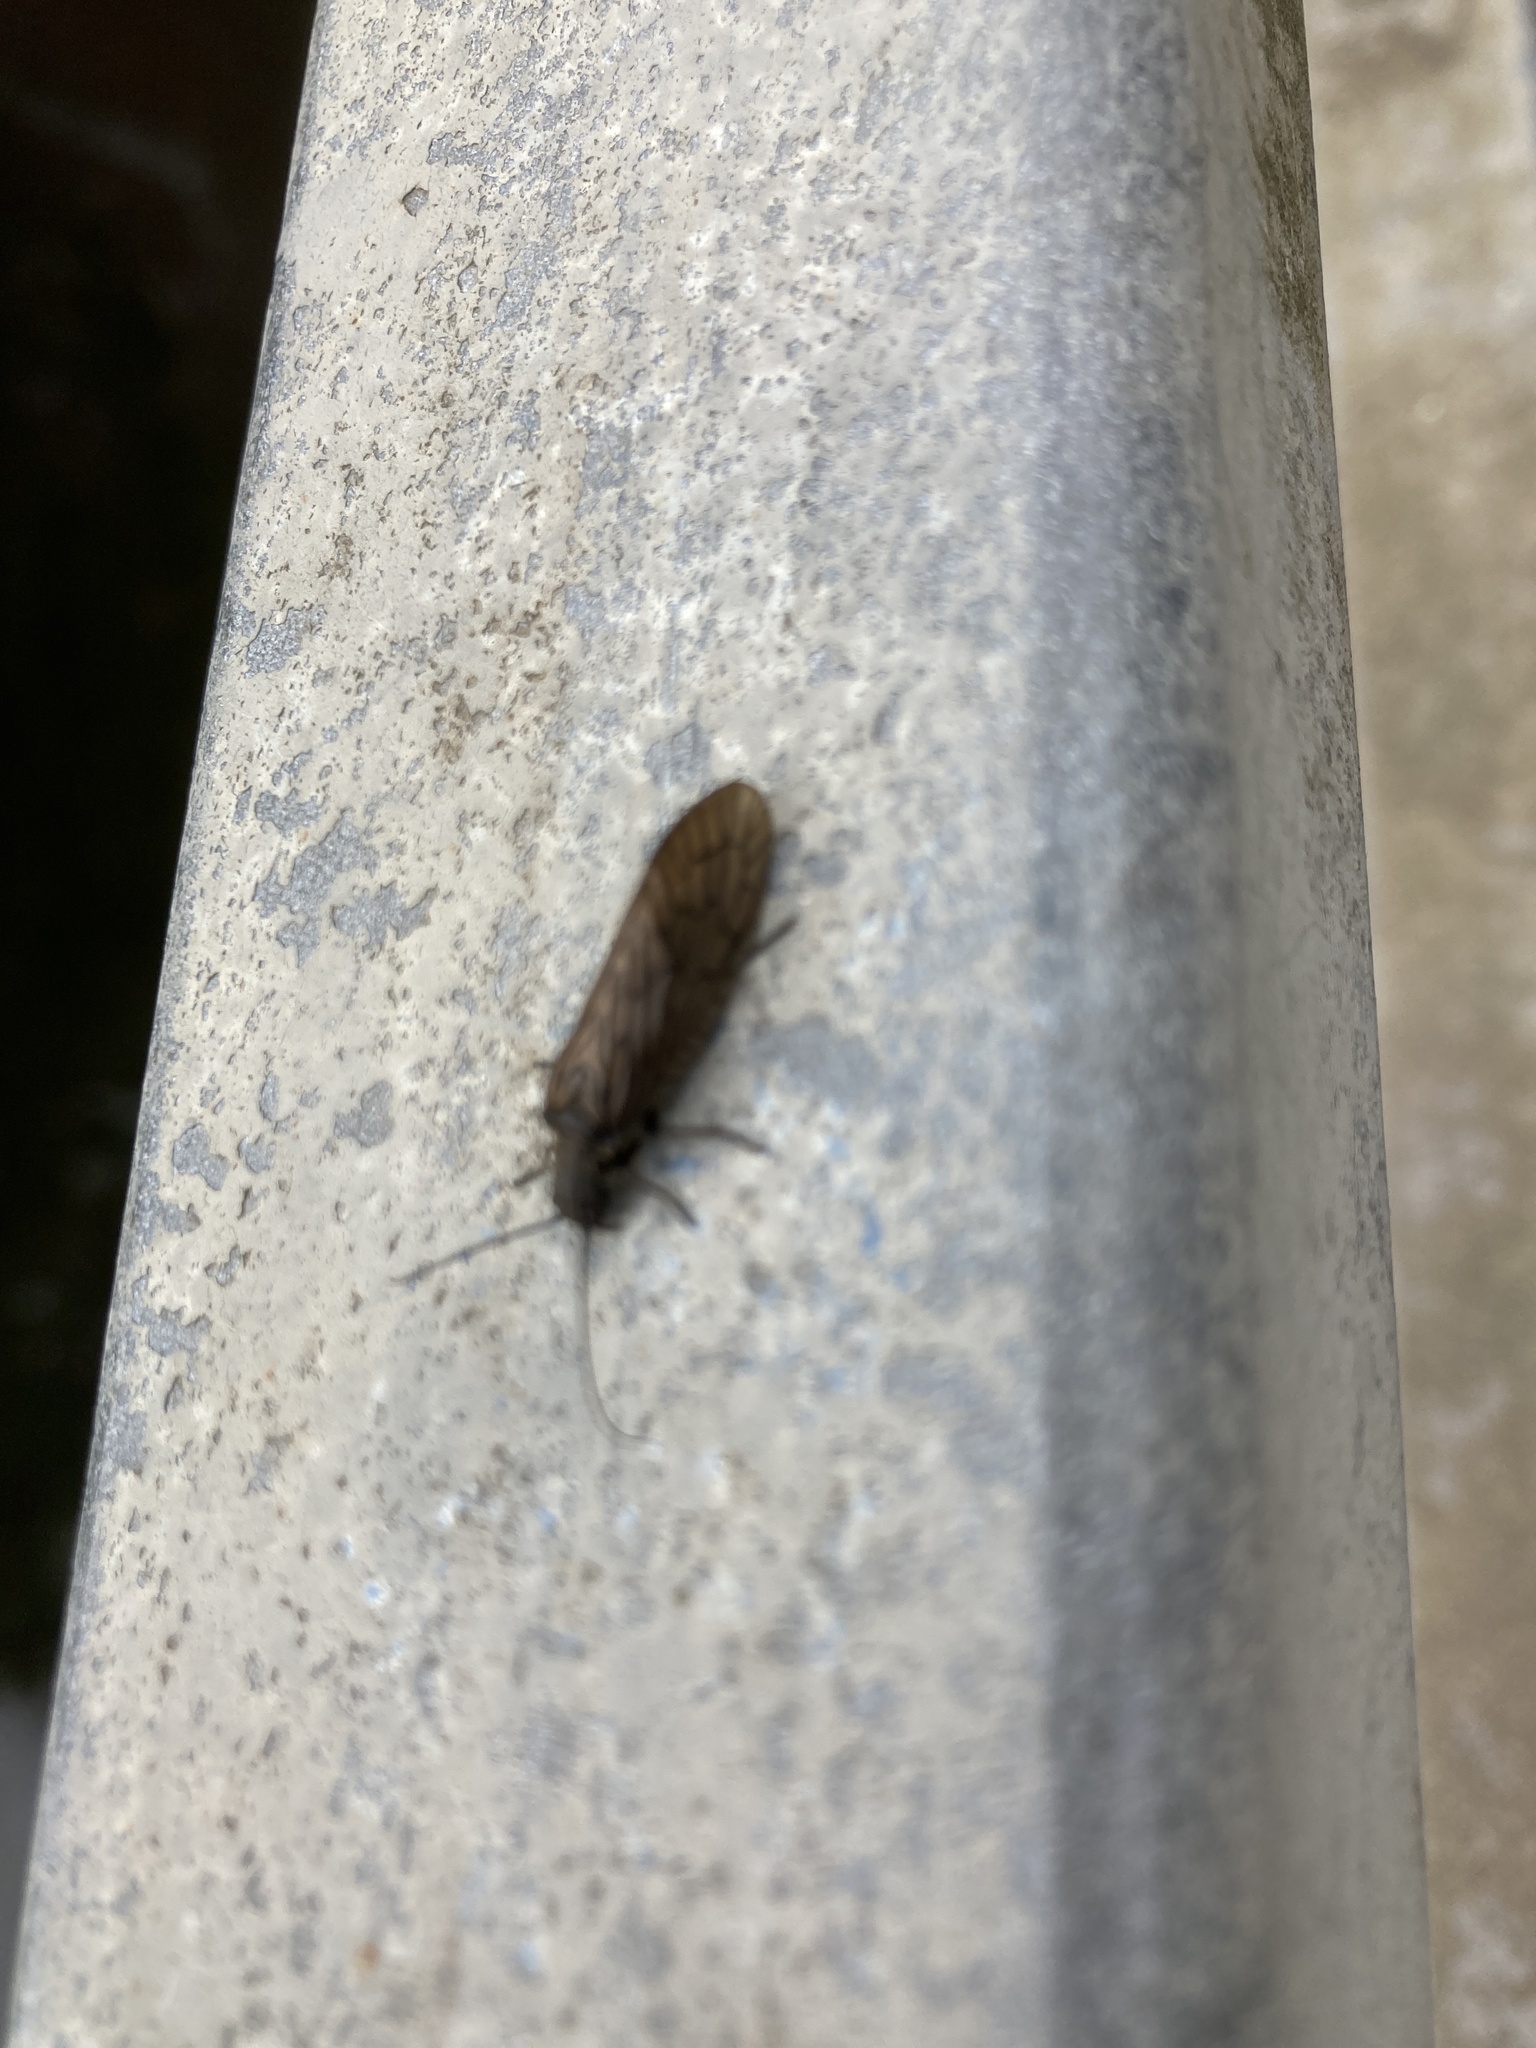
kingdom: Animalia
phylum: Arthropoda
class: Insecta
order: Megaloptera
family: Sialidae
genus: Sialis
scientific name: Sialis
